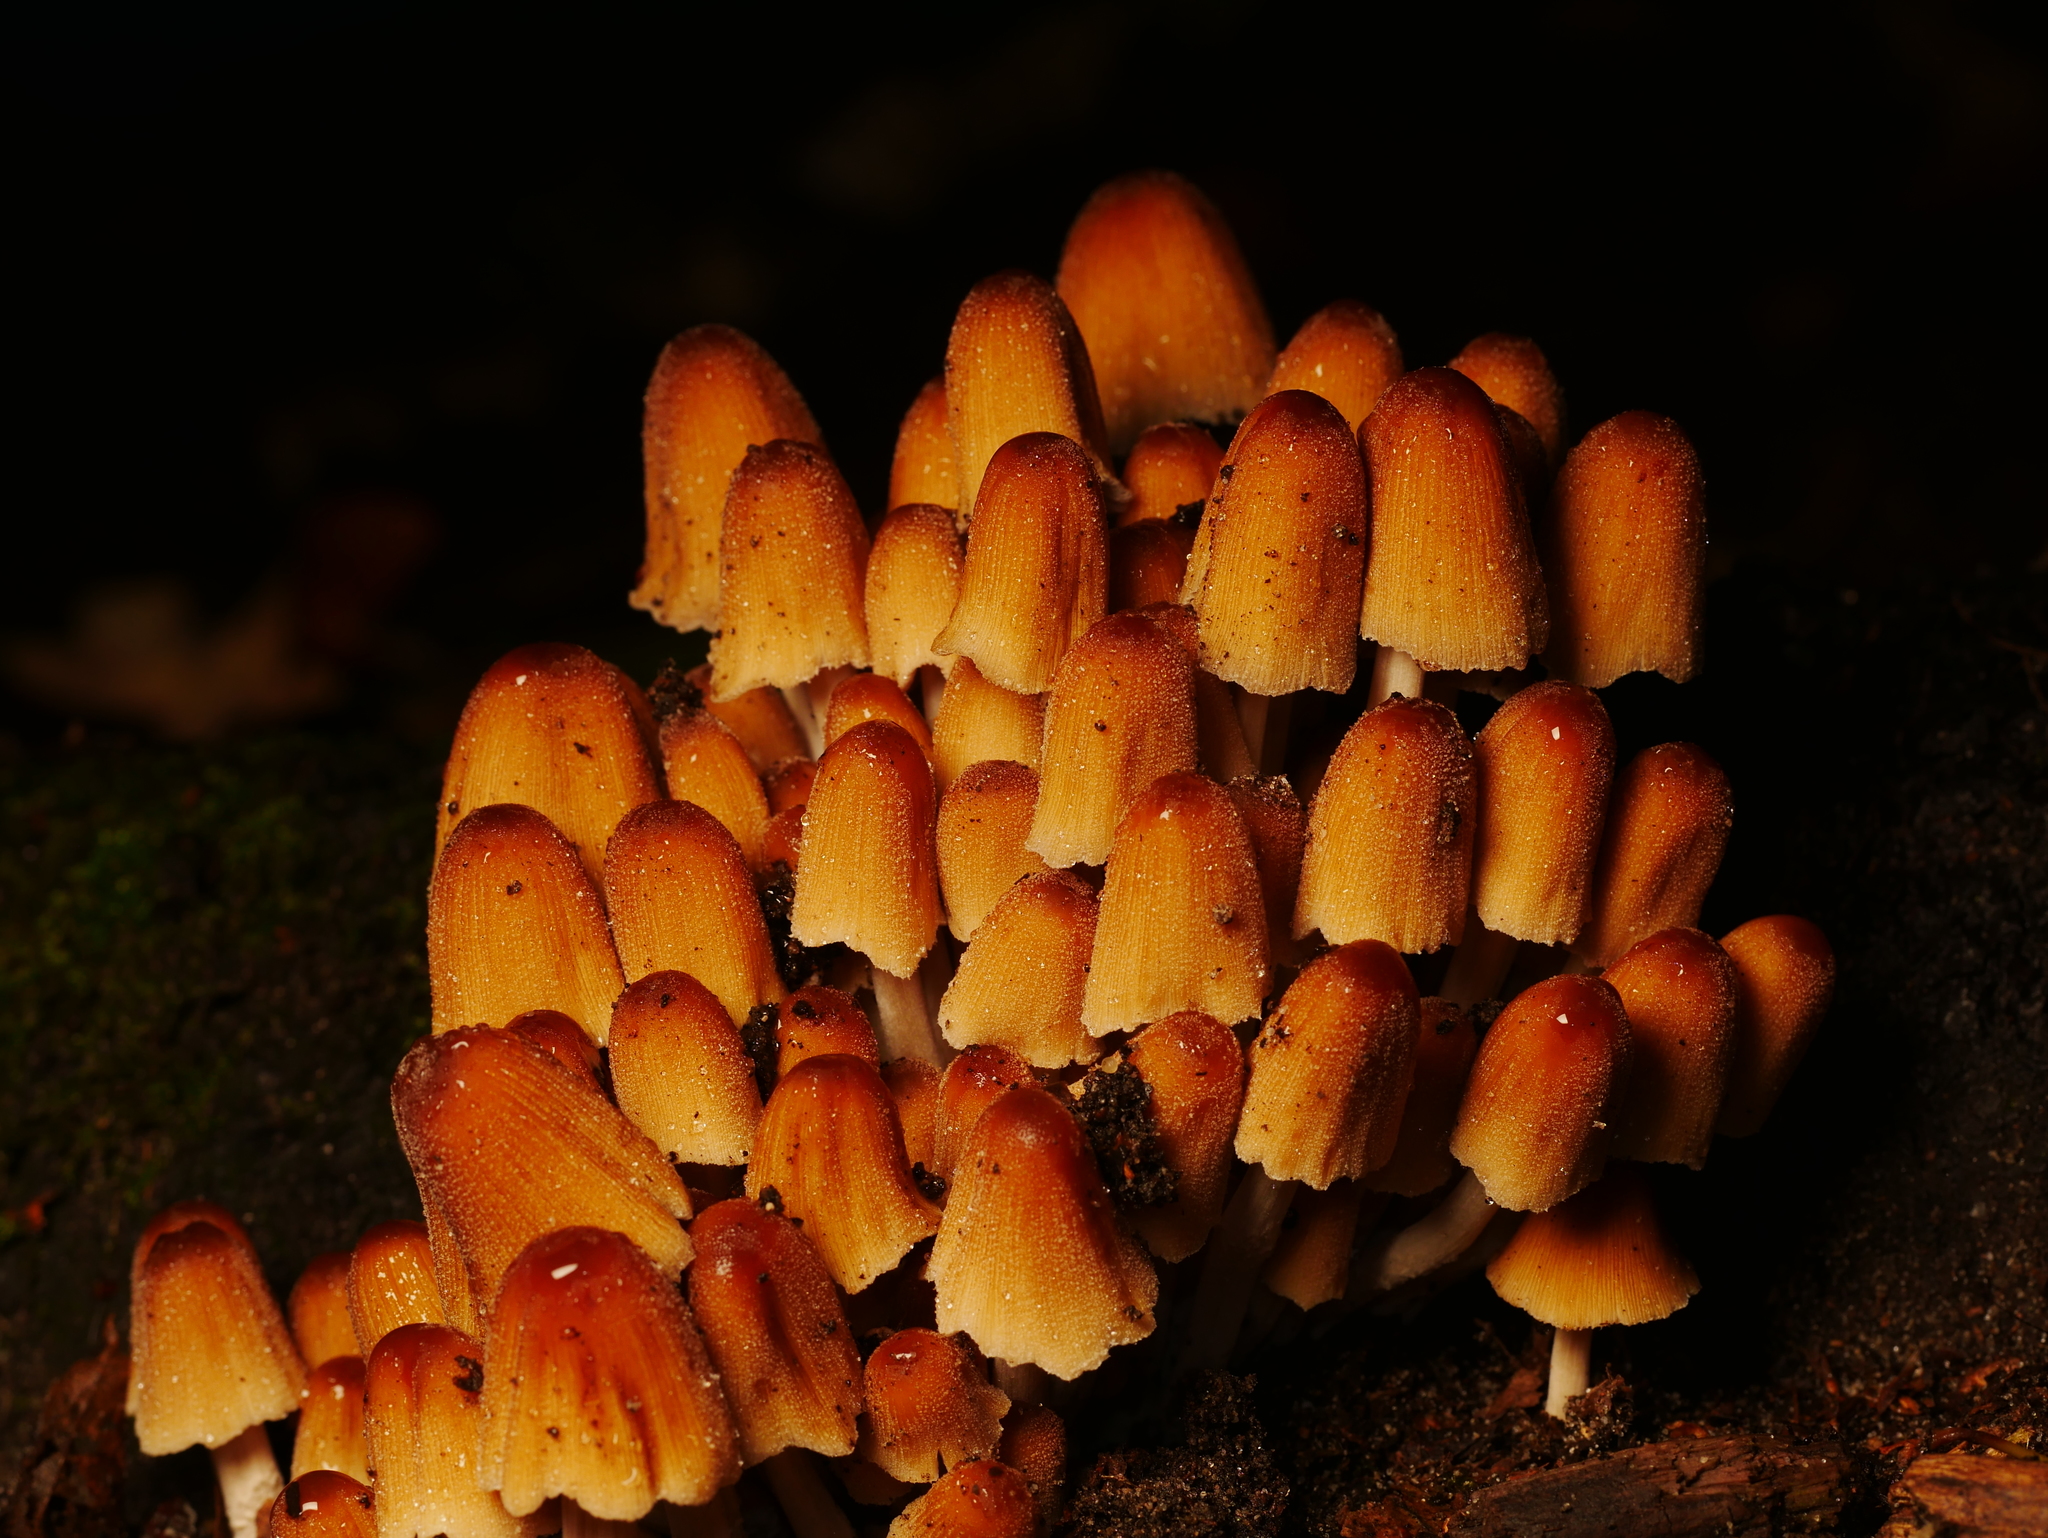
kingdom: Fungi
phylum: Basidiomycota
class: Agaricomycetes
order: Agaricales
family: Psathyrellaceae
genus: Coprinellus
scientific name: Coprinellus micaceus
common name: Glistening ink-cap
